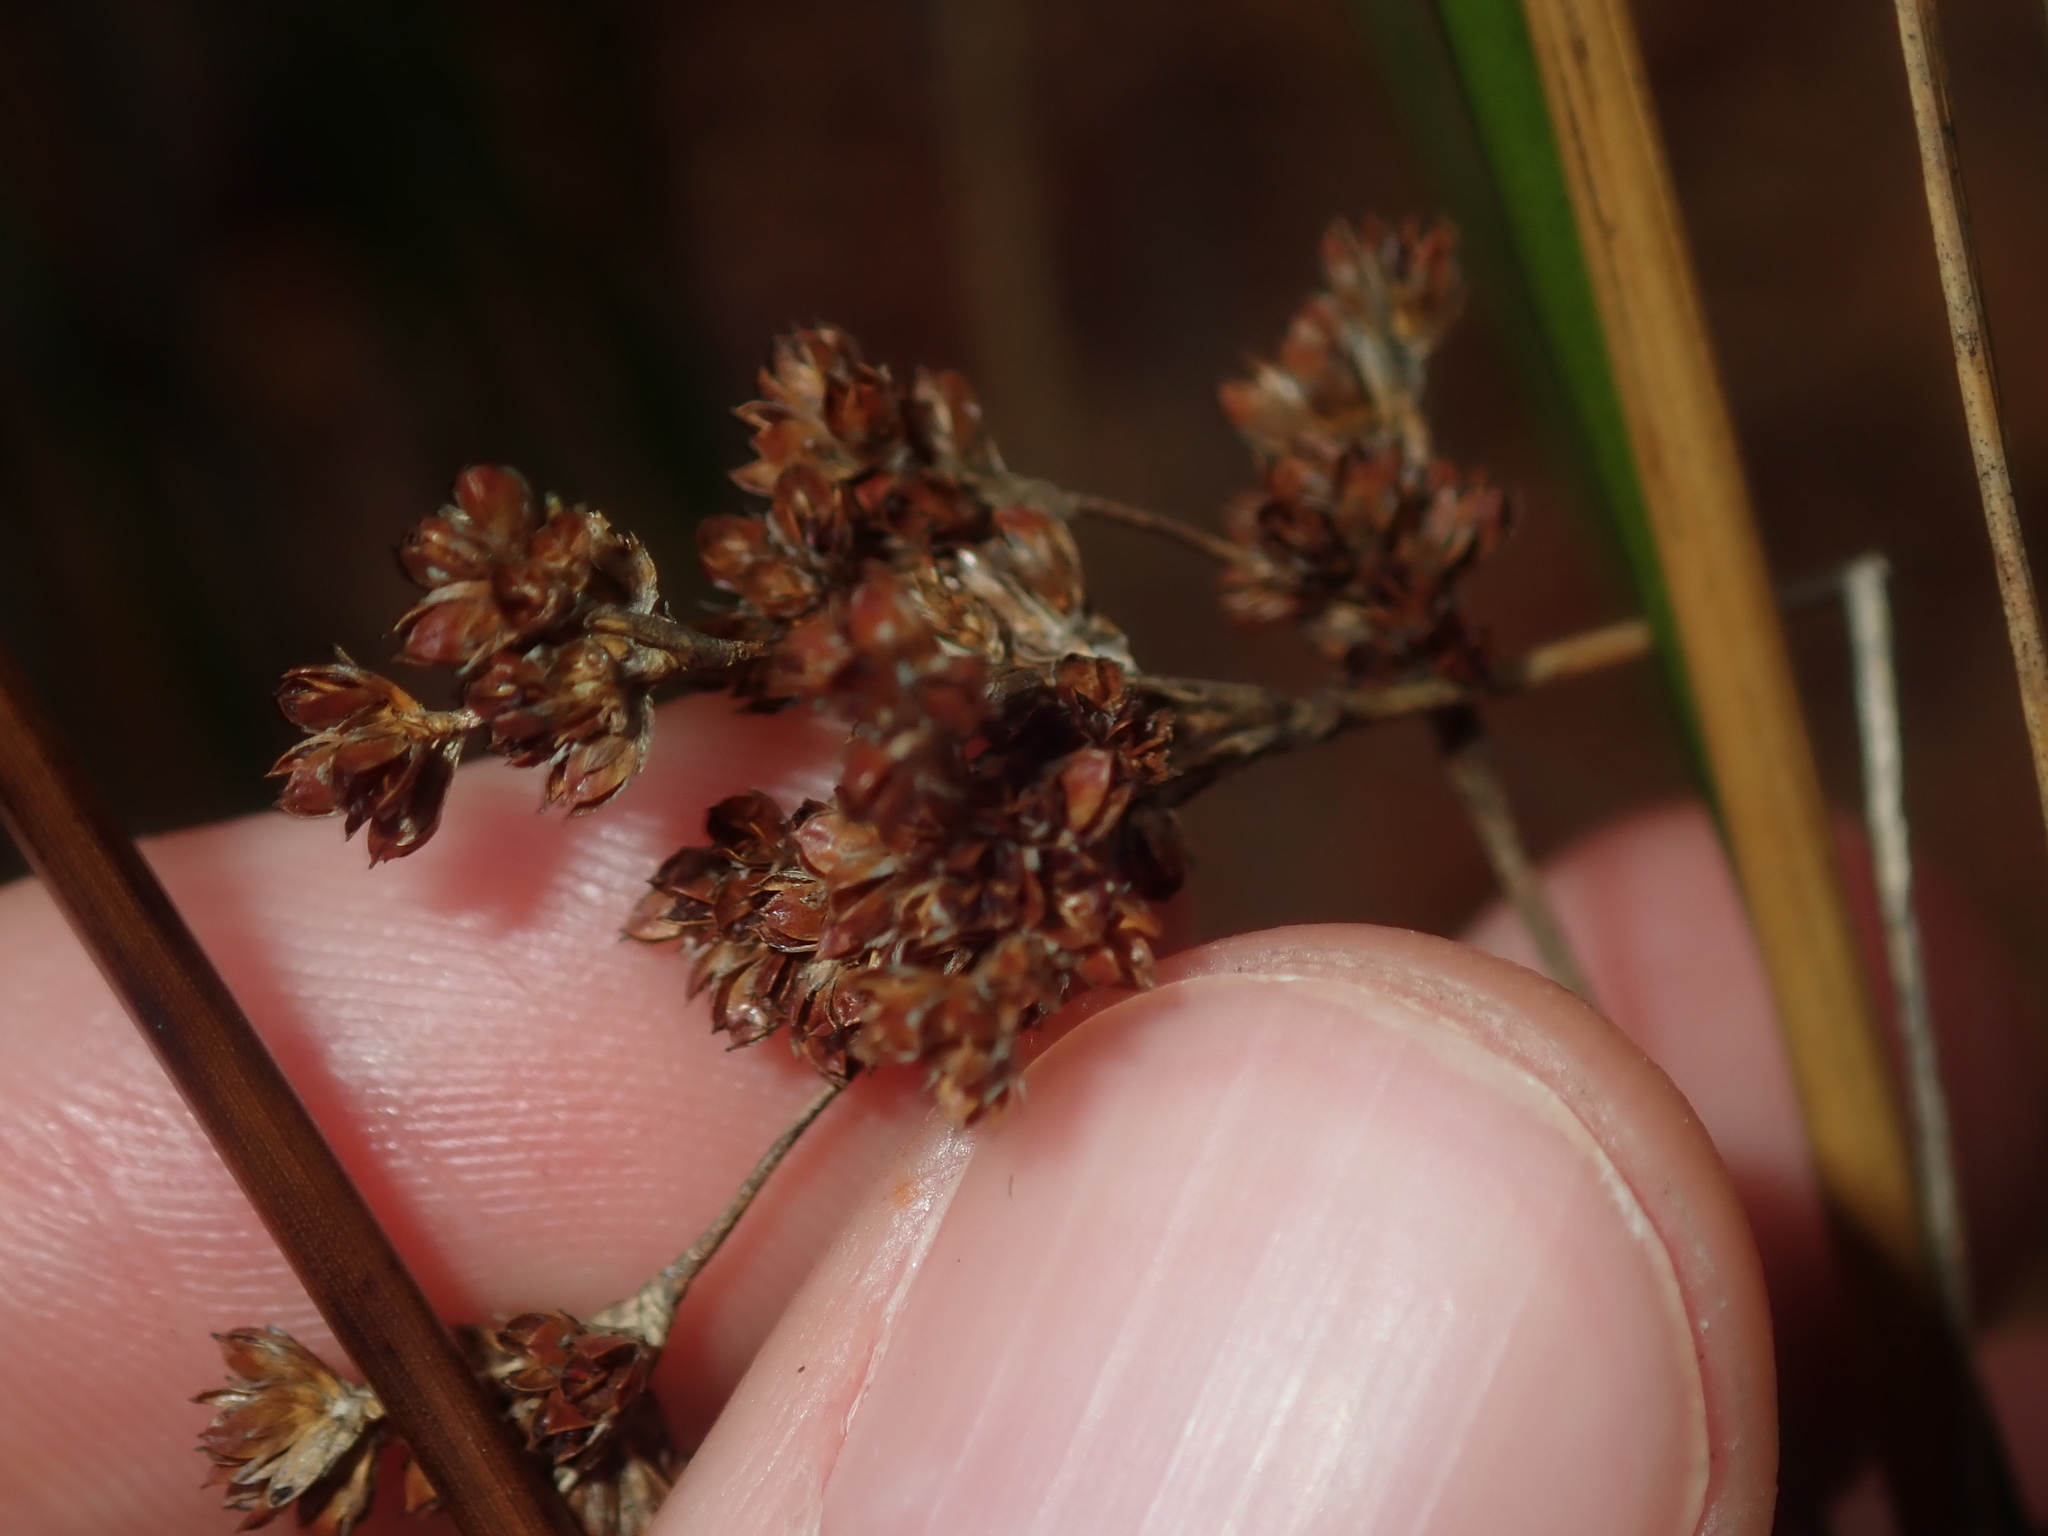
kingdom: Plantae
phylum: Tracheophyta
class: Liliopsida
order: Poales
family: Juncaceae
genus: Juncus
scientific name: Juncus kraussii
